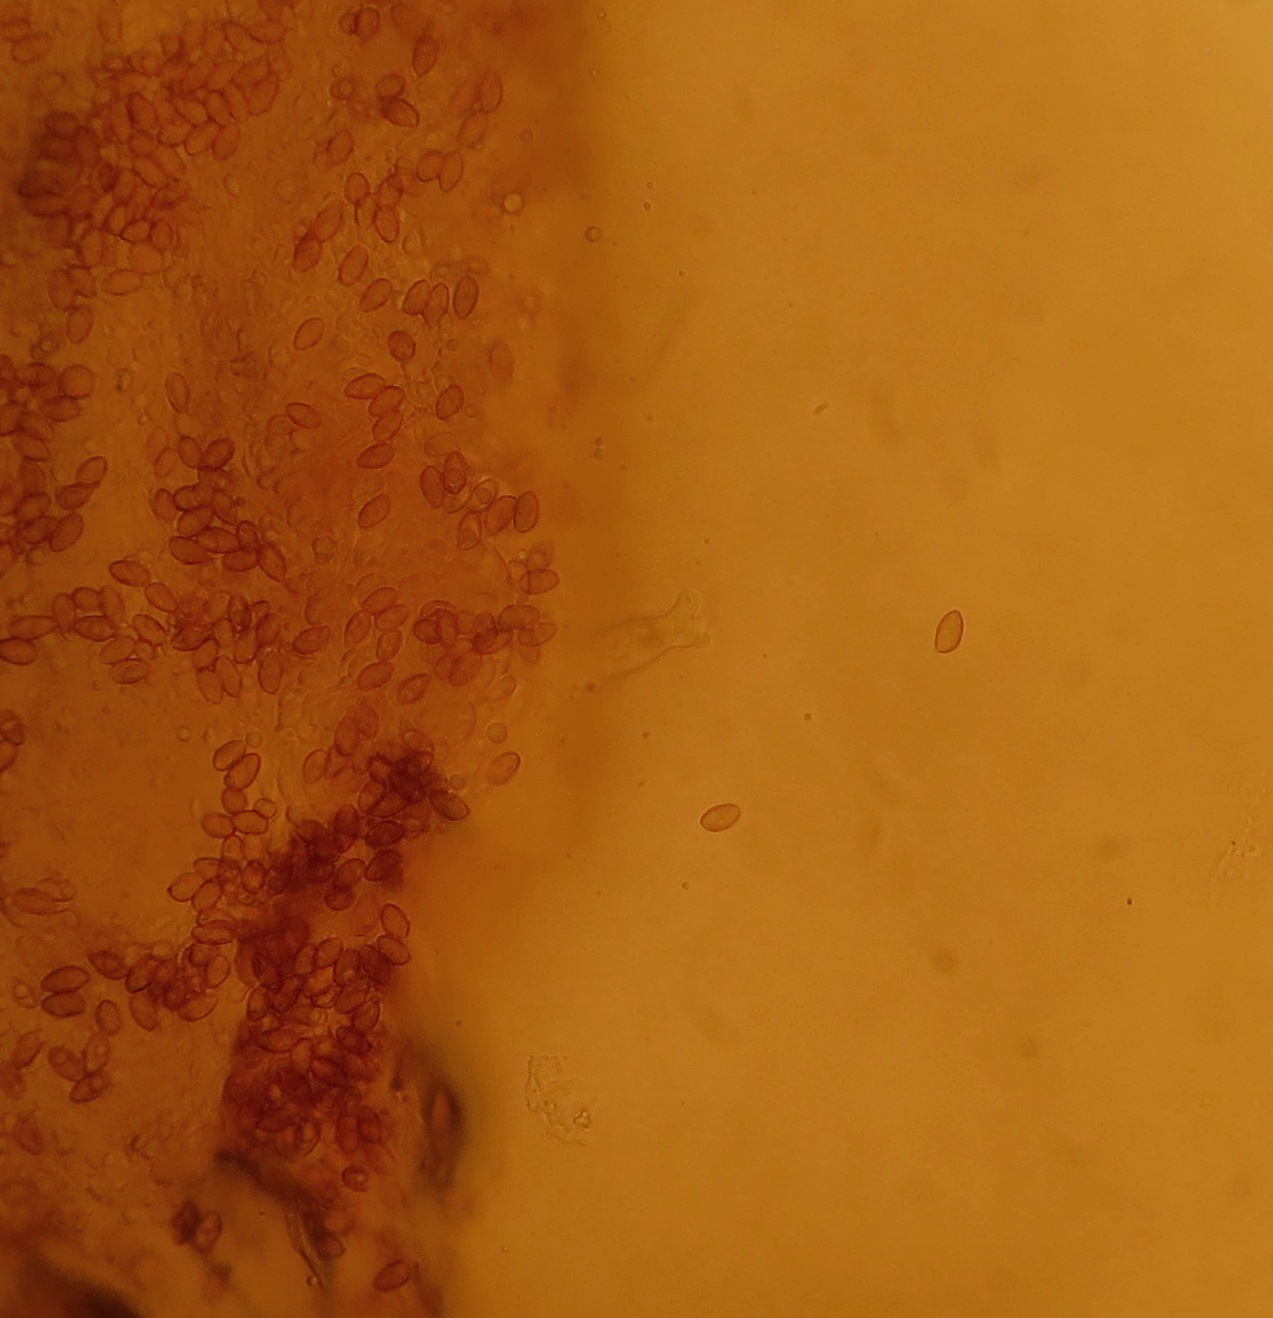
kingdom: Fungi
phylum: Basidiomycota
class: Agaricomycetes
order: Agaricales
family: Hymenogastraceae
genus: Galerina
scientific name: Galerina patagonica
